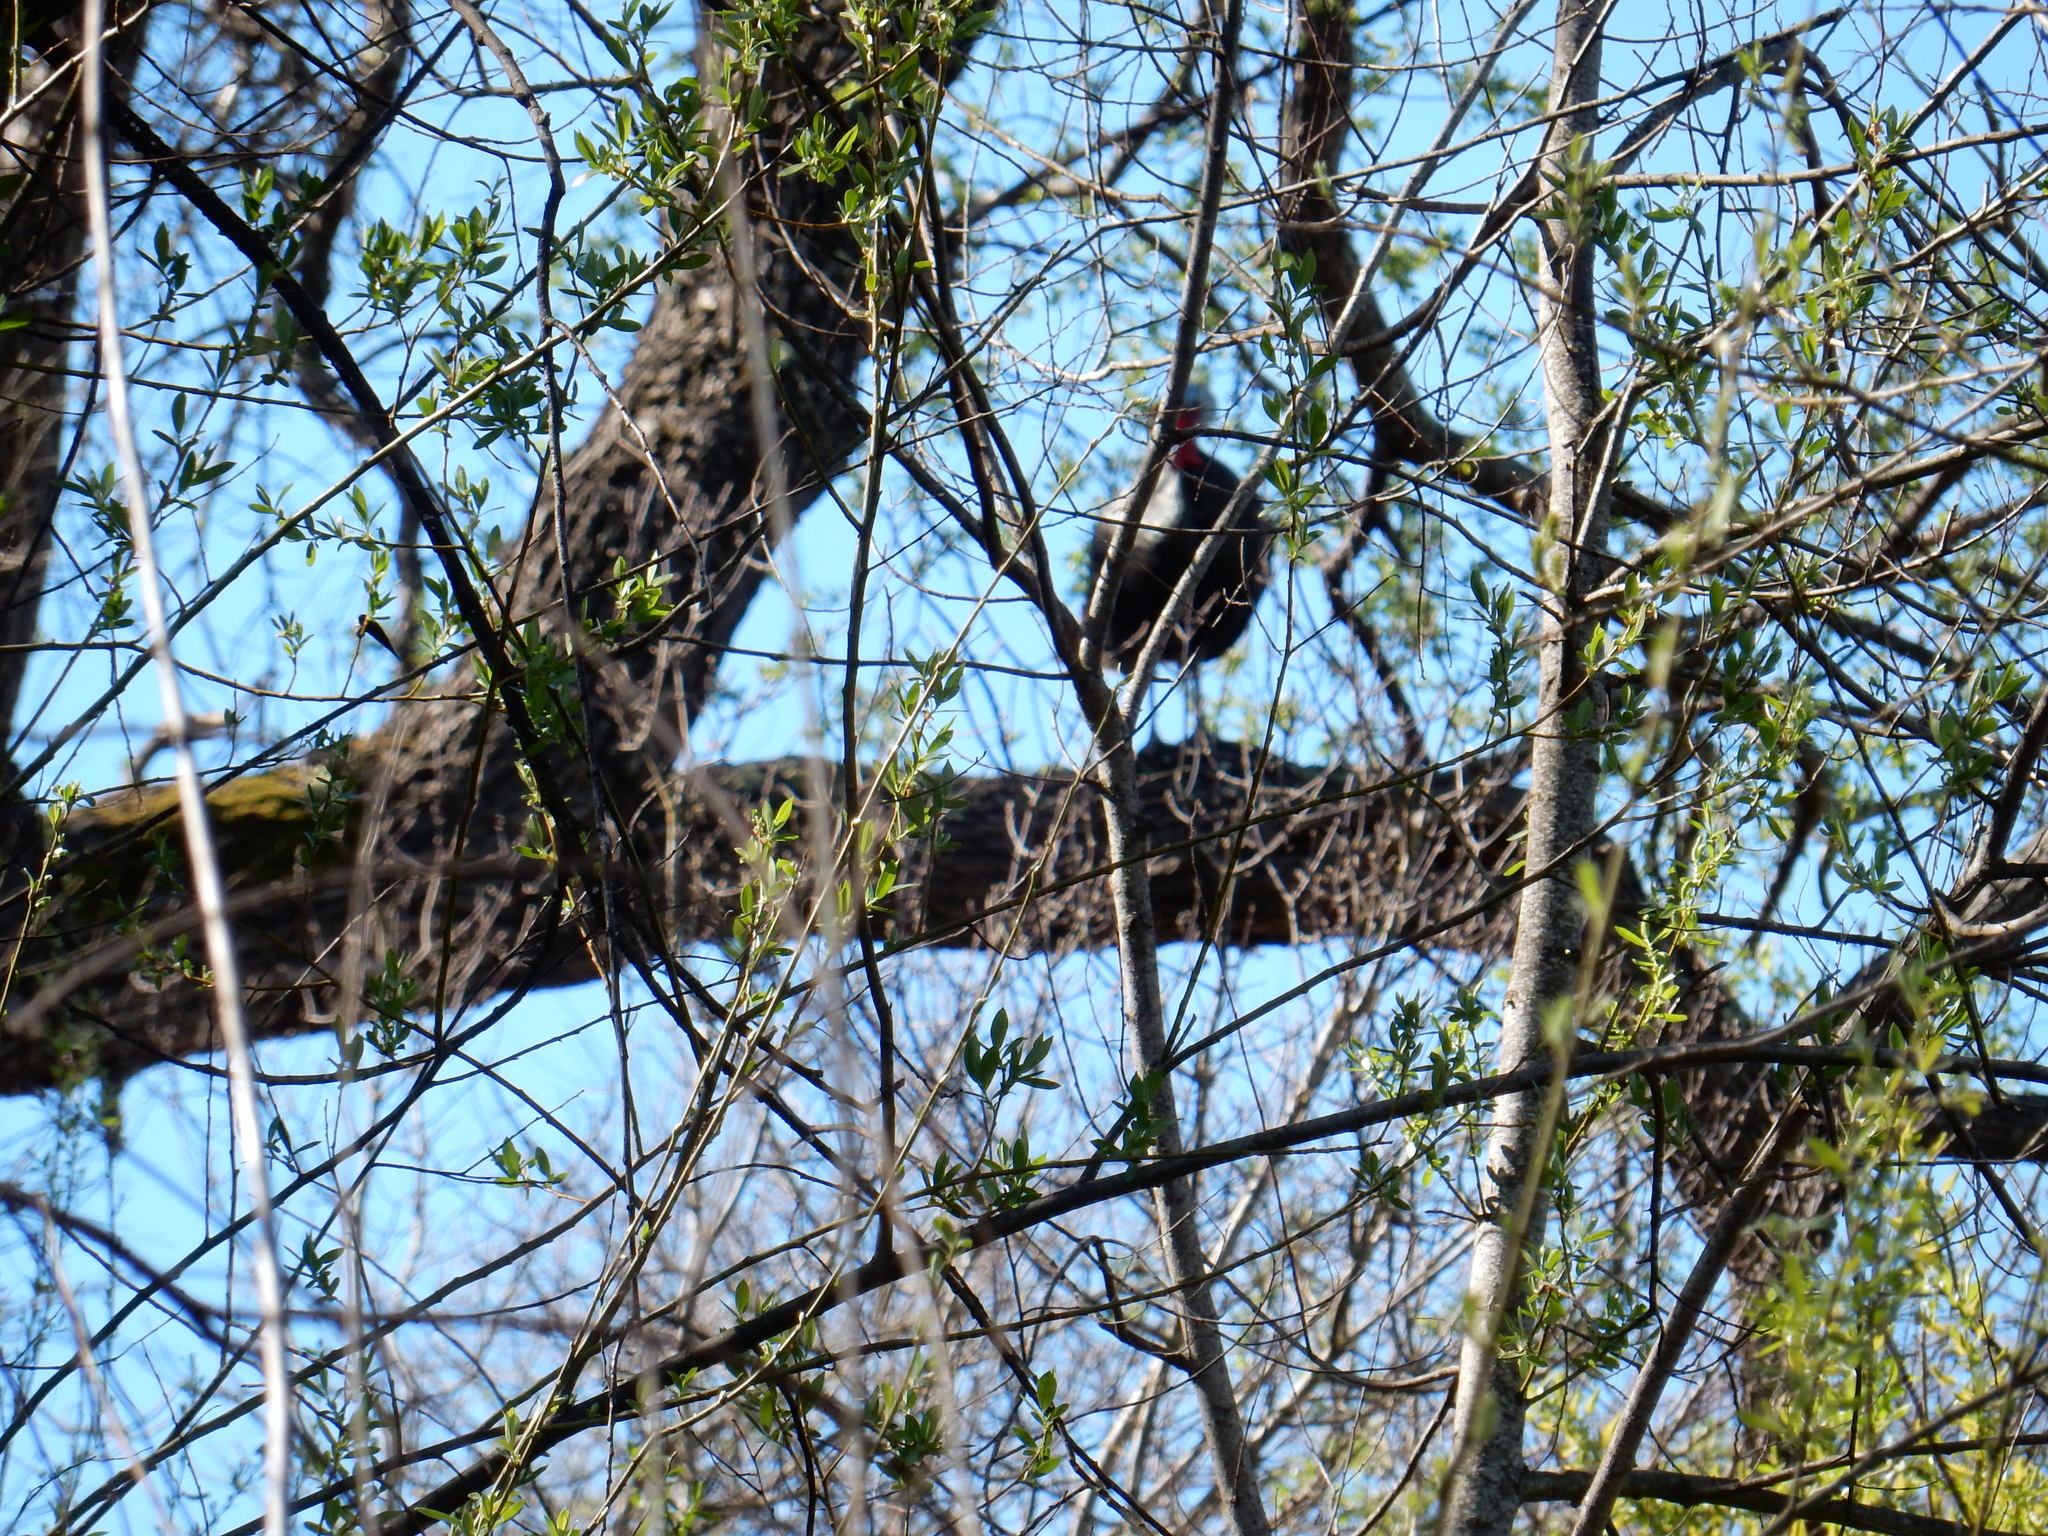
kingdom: Animalia
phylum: Chordata
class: Aves
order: Galliformes
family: Phasianidae
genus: Meleagris
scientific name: Meleagris gallopavo
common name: Wild turkey
